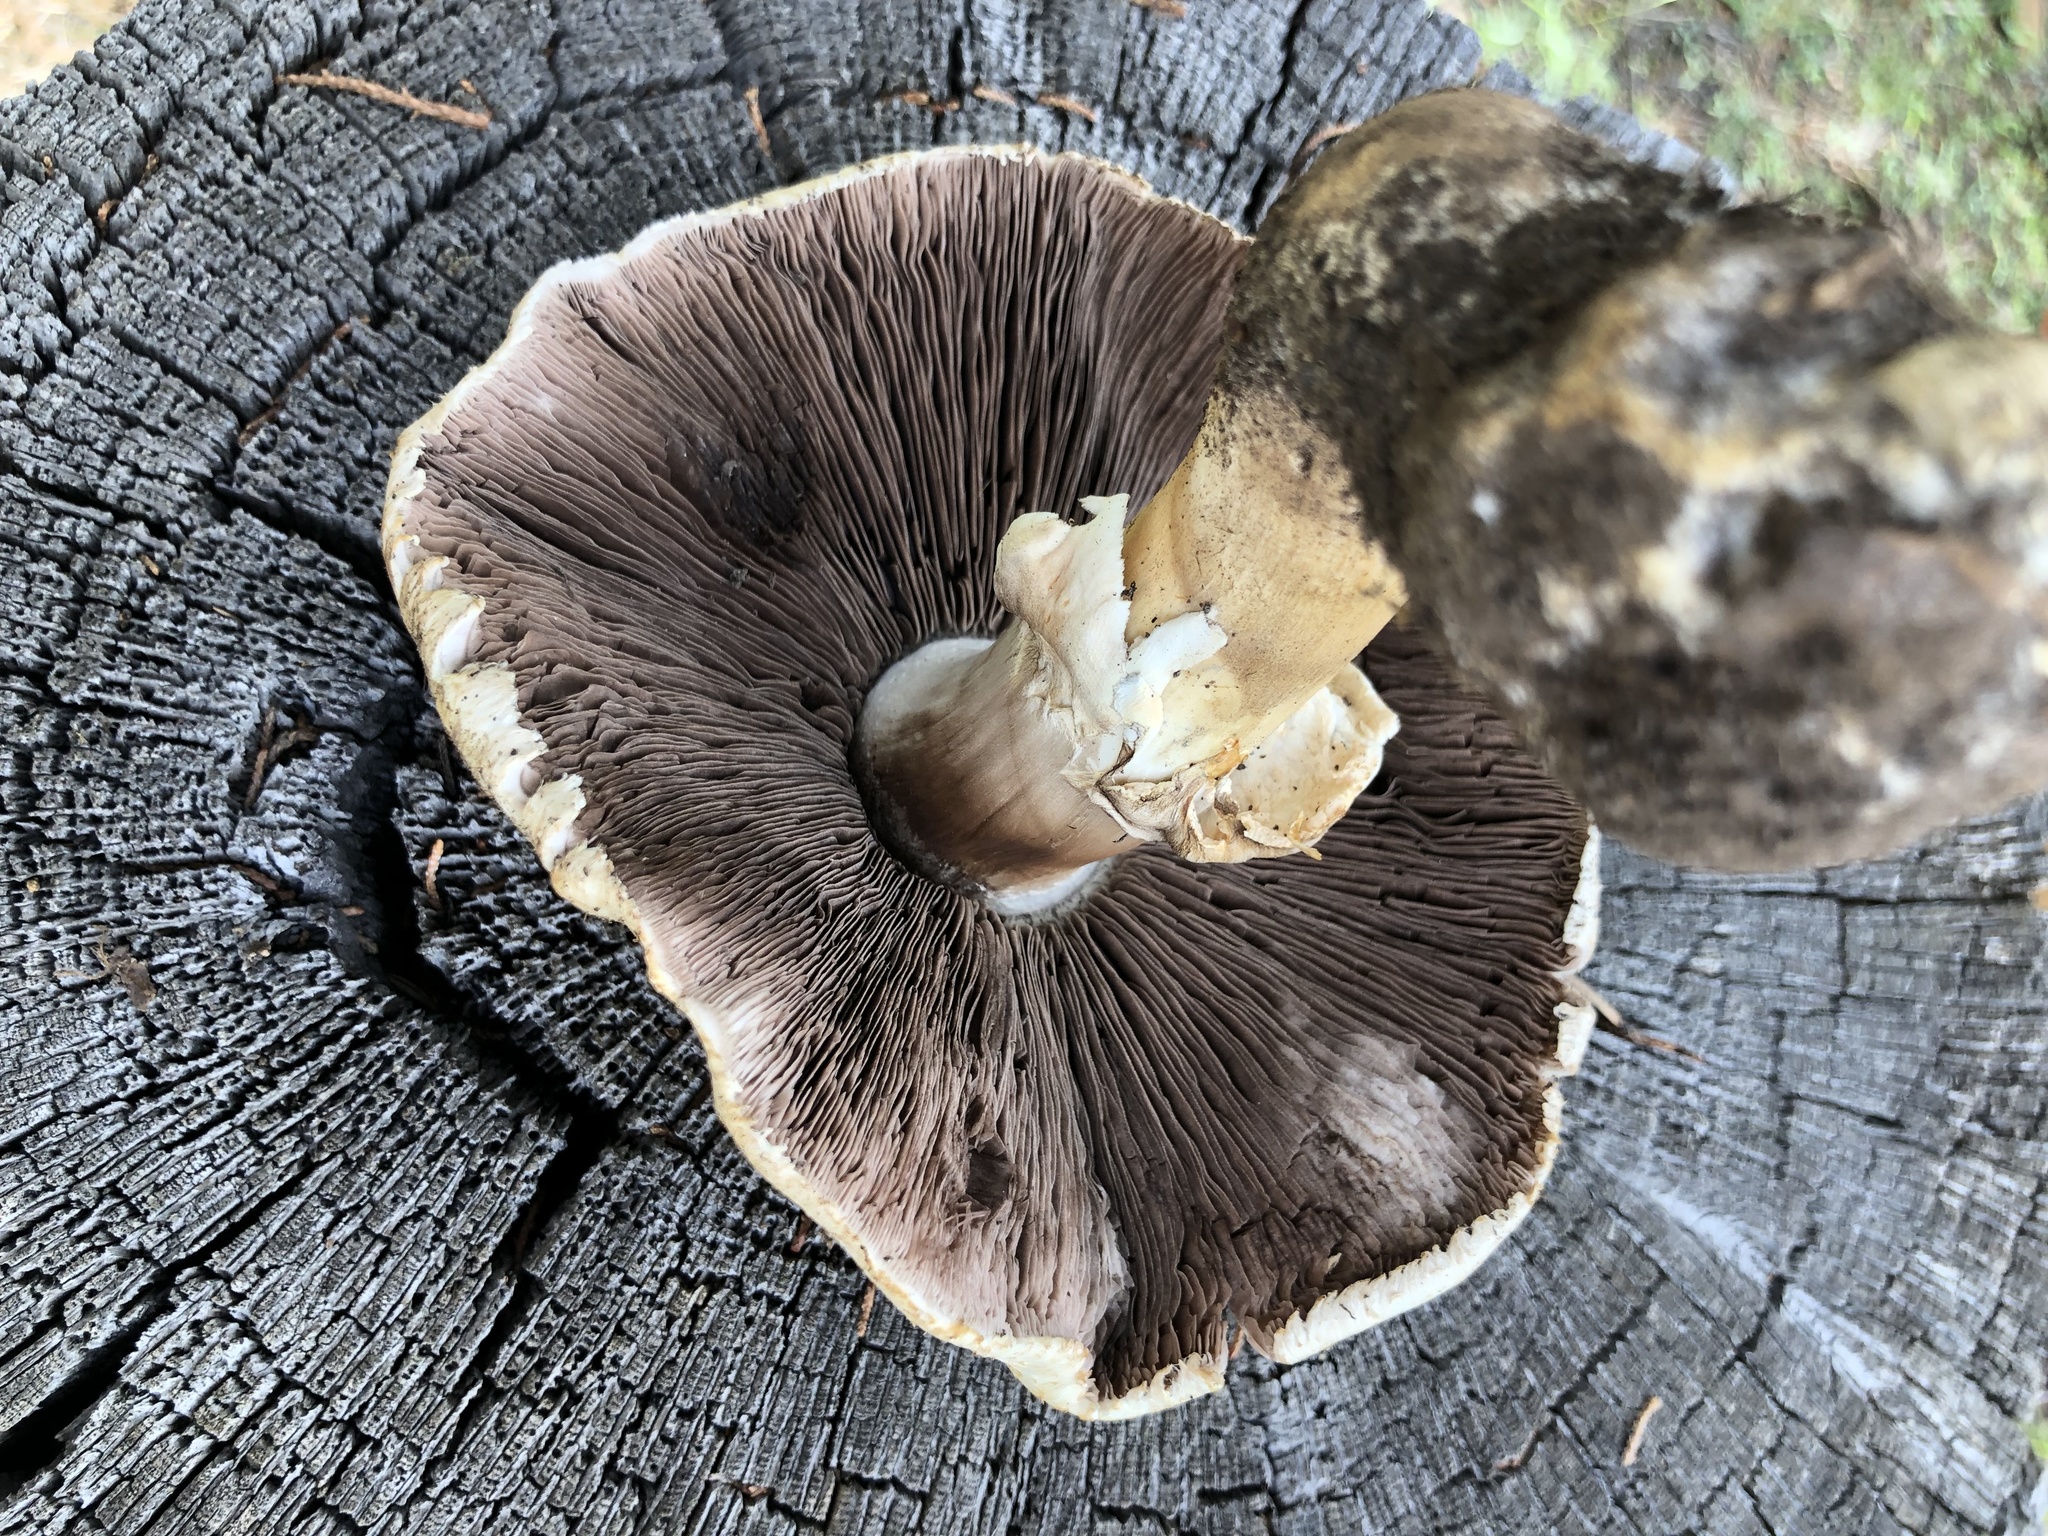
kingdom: Fungi
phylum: Basidiomycota
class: Agaricomycetes
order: Agaricales
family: Agaricaceae
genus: Agaricus
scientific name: Agaricus didymus
